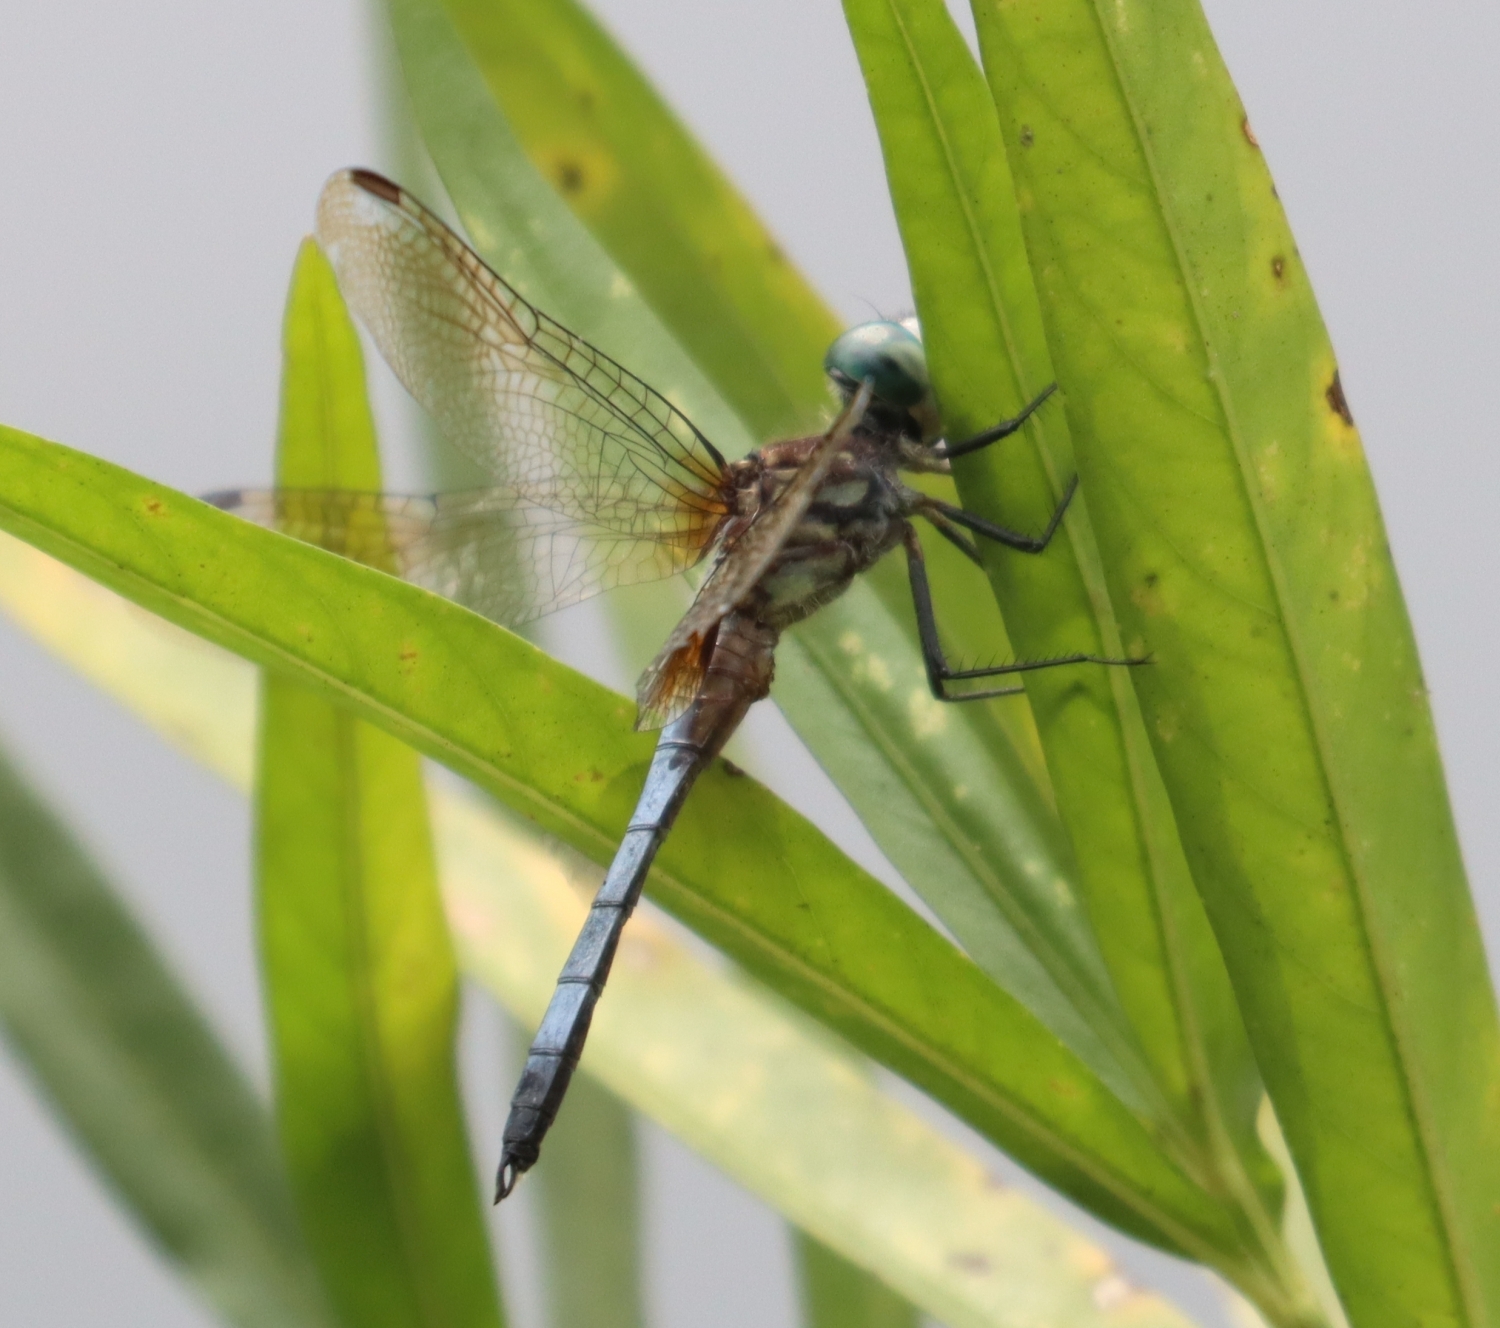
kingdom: Animalia
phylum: Arthropoda
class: Insecta
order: Odonata
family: Libellulidae
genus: Pachydiplax
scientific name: Pachydiplax longipennis
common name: Blue dasher
